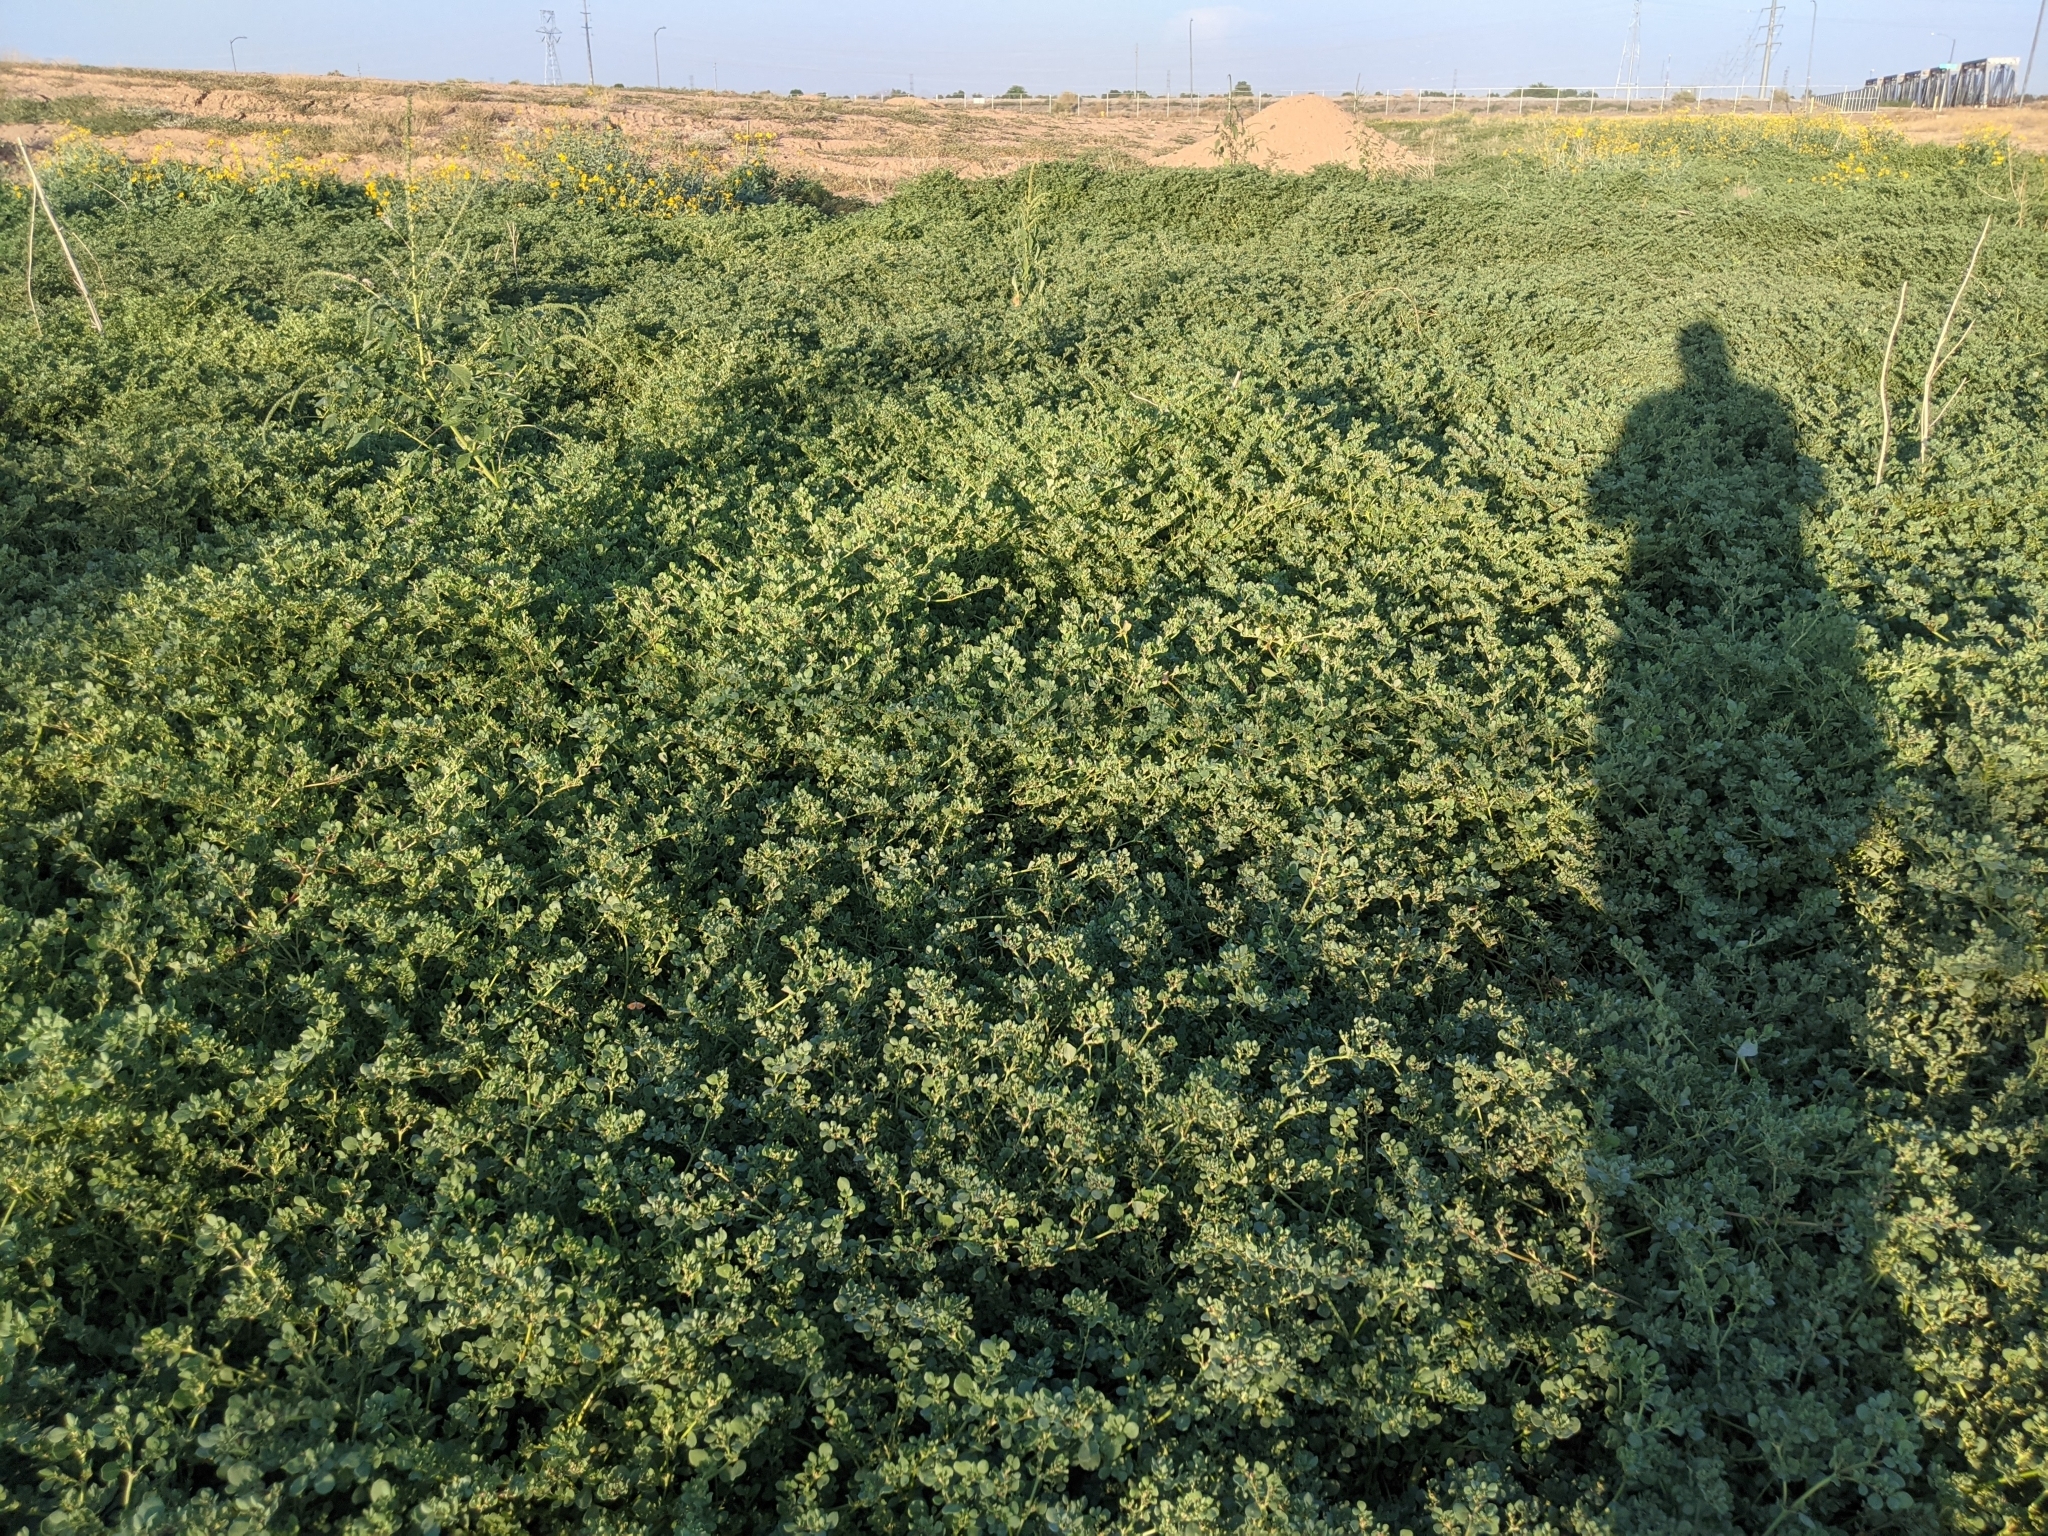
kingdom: Plantae
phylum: Tracheophyta
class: Magnoliopsida
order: Caryophyllales
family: Aizoaceae
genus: Trianthema
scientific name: Trianthema portulacastrum
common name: Desert horsepurslane
